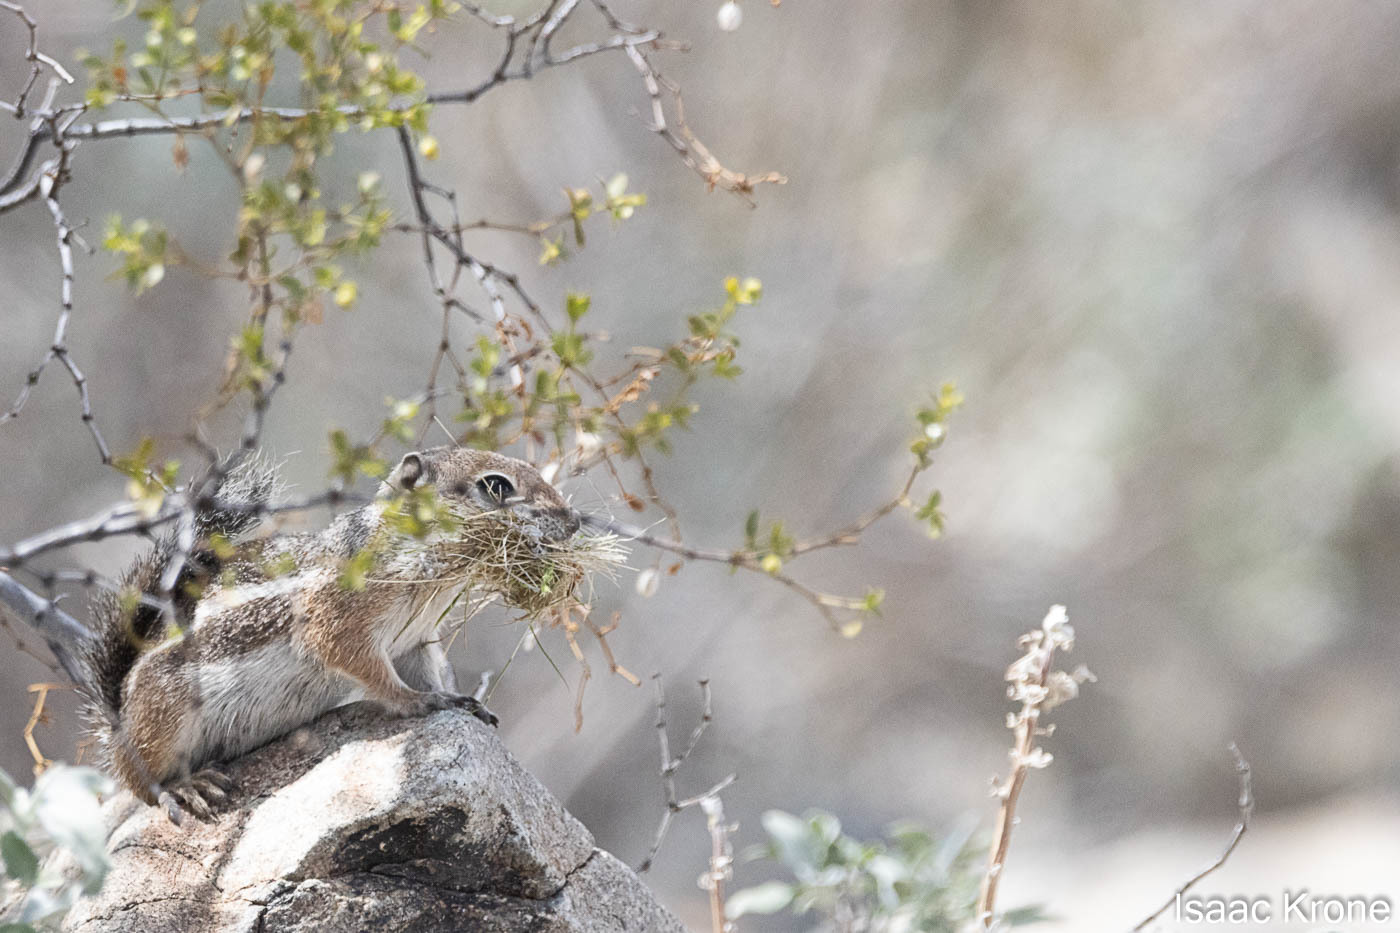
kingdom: Animalia
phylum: Chordata
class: Mammalia
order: Rodentia
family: Sciuridae
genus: Ammospermophilus
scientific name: Ammospermophilus harrisii
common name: Harris's antelope squirrel
